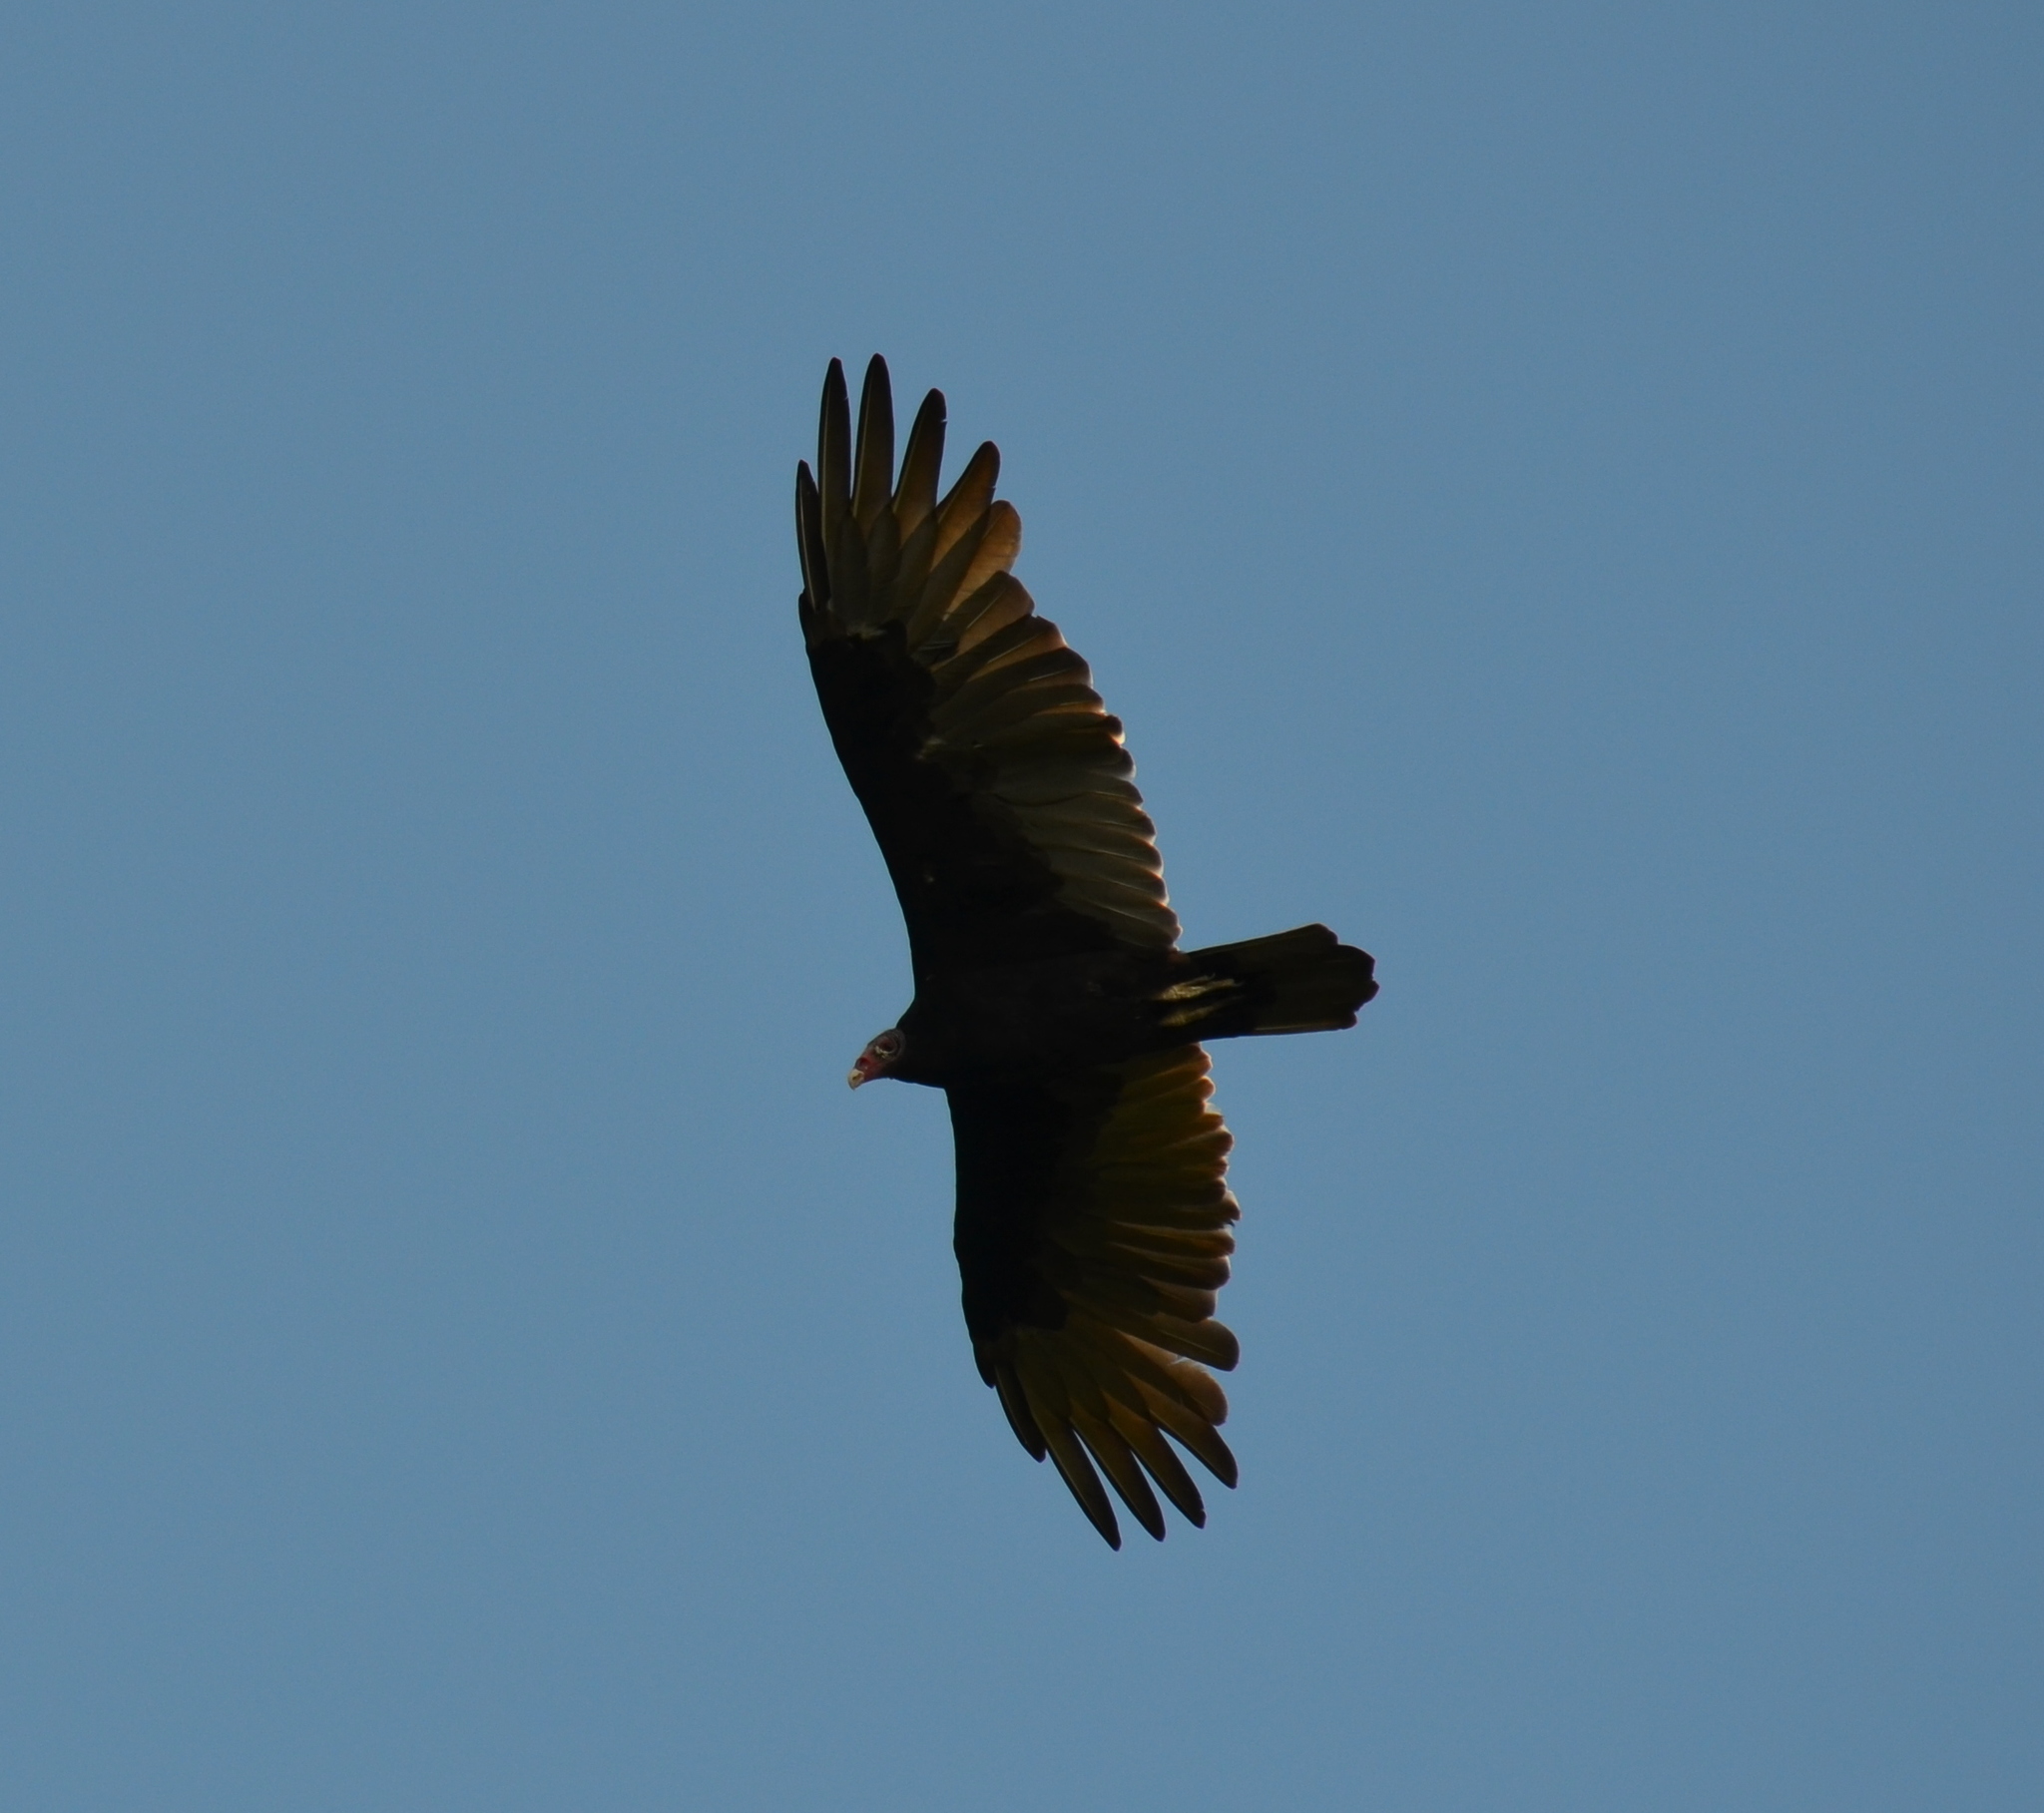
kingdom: Animalia
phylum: Chordata
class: Aves
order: Accipitriformes
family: Cathartidae
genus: Cathartes
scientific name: Cathartes aura
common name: Turkey vulture
